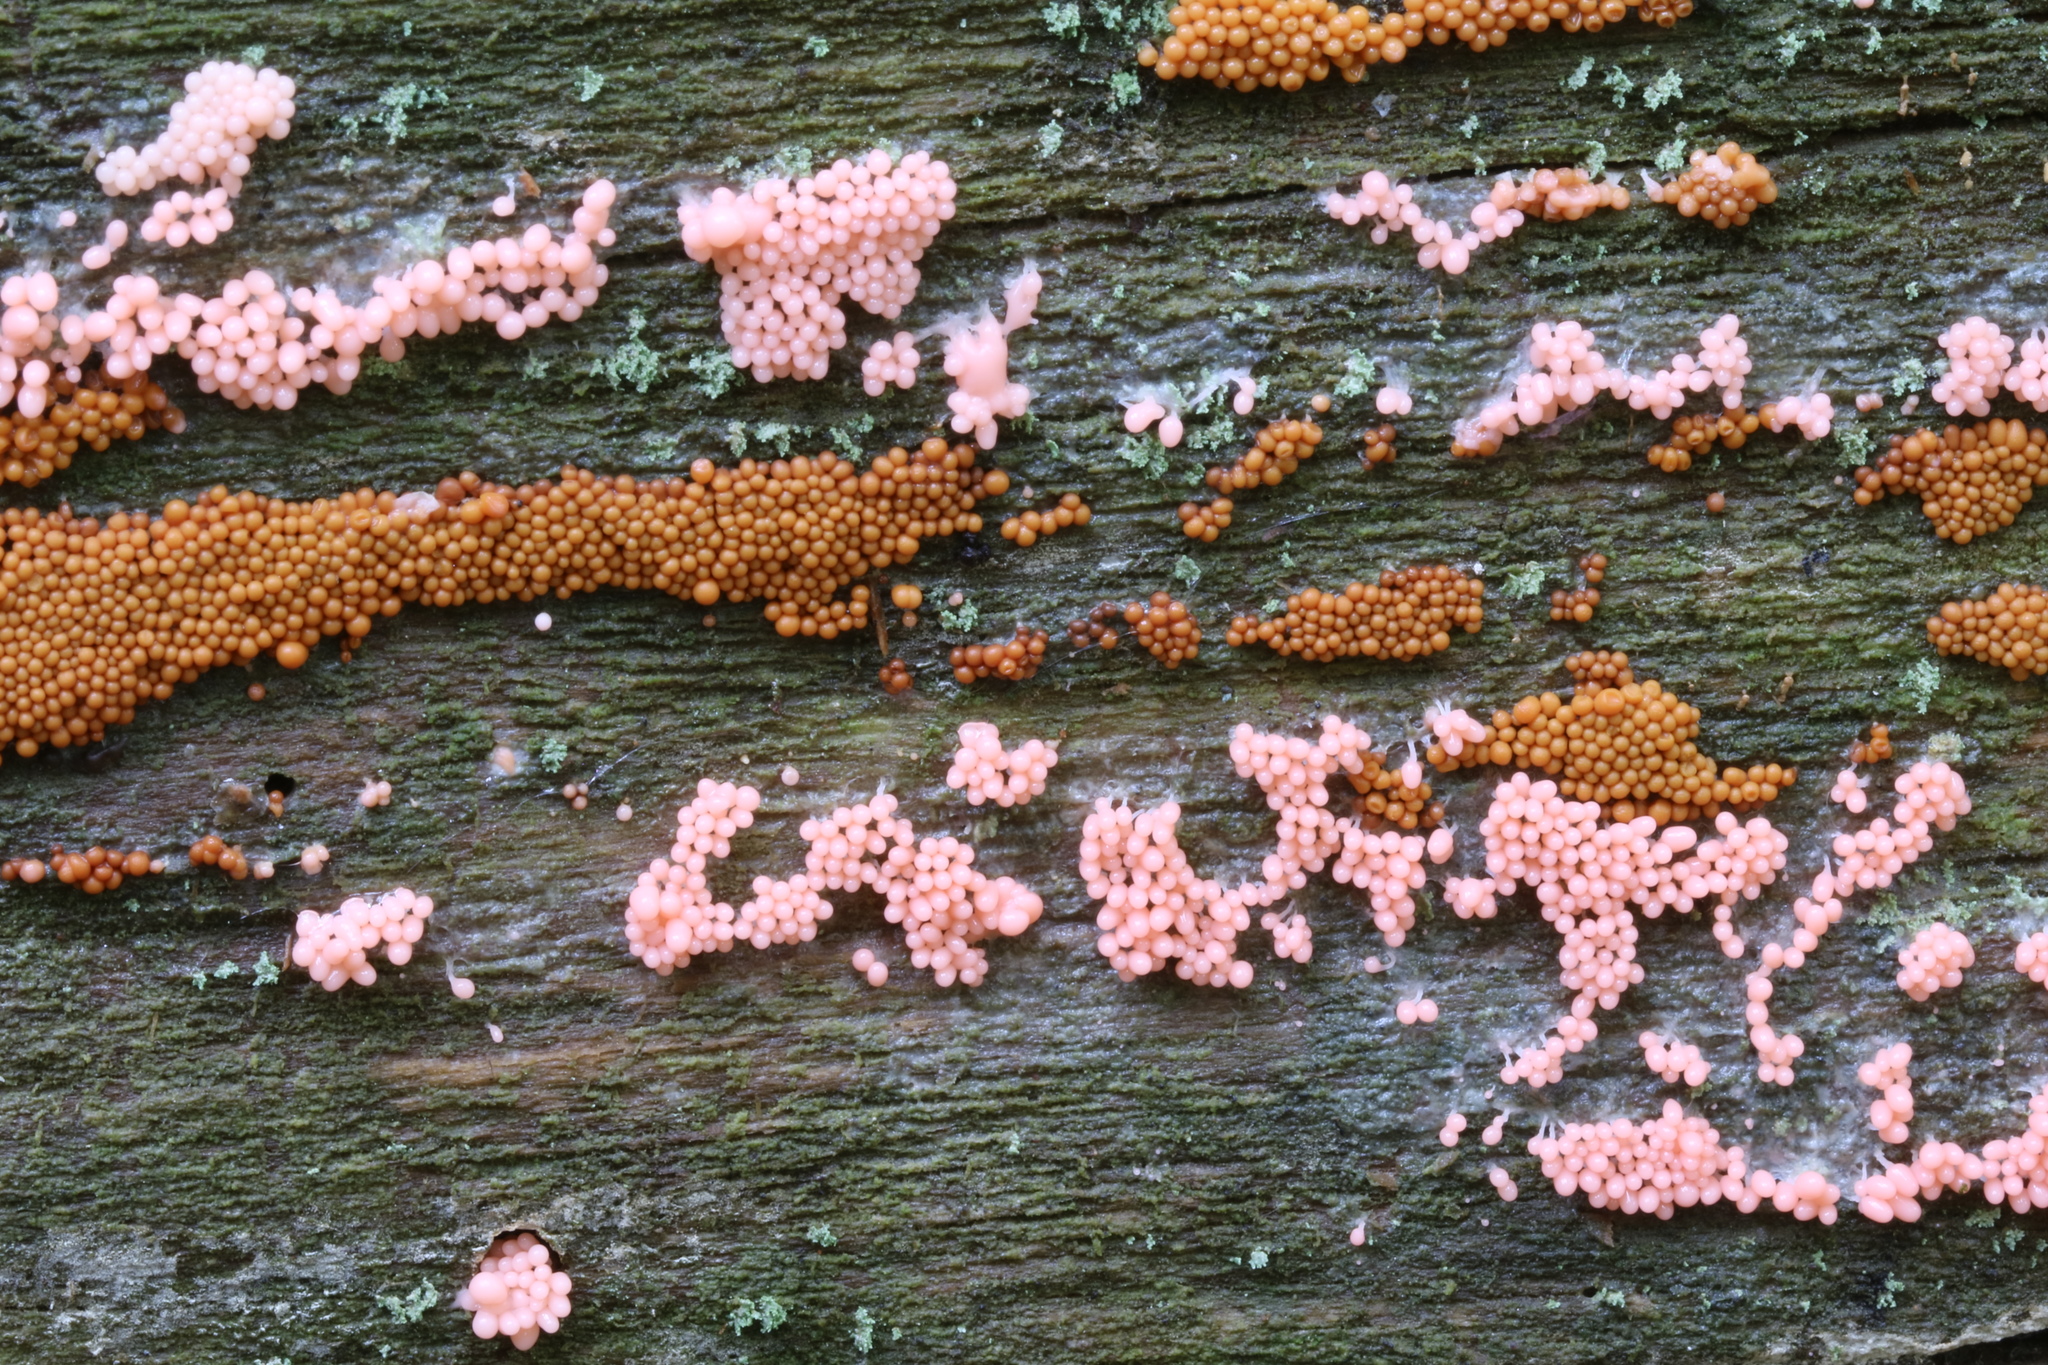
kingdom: Protozoa
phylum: Mycetozoa
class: Myxomycetes
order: Trichiales
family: Arcyriaceae
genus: Arcyria
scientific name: Arcyria ferruginea
